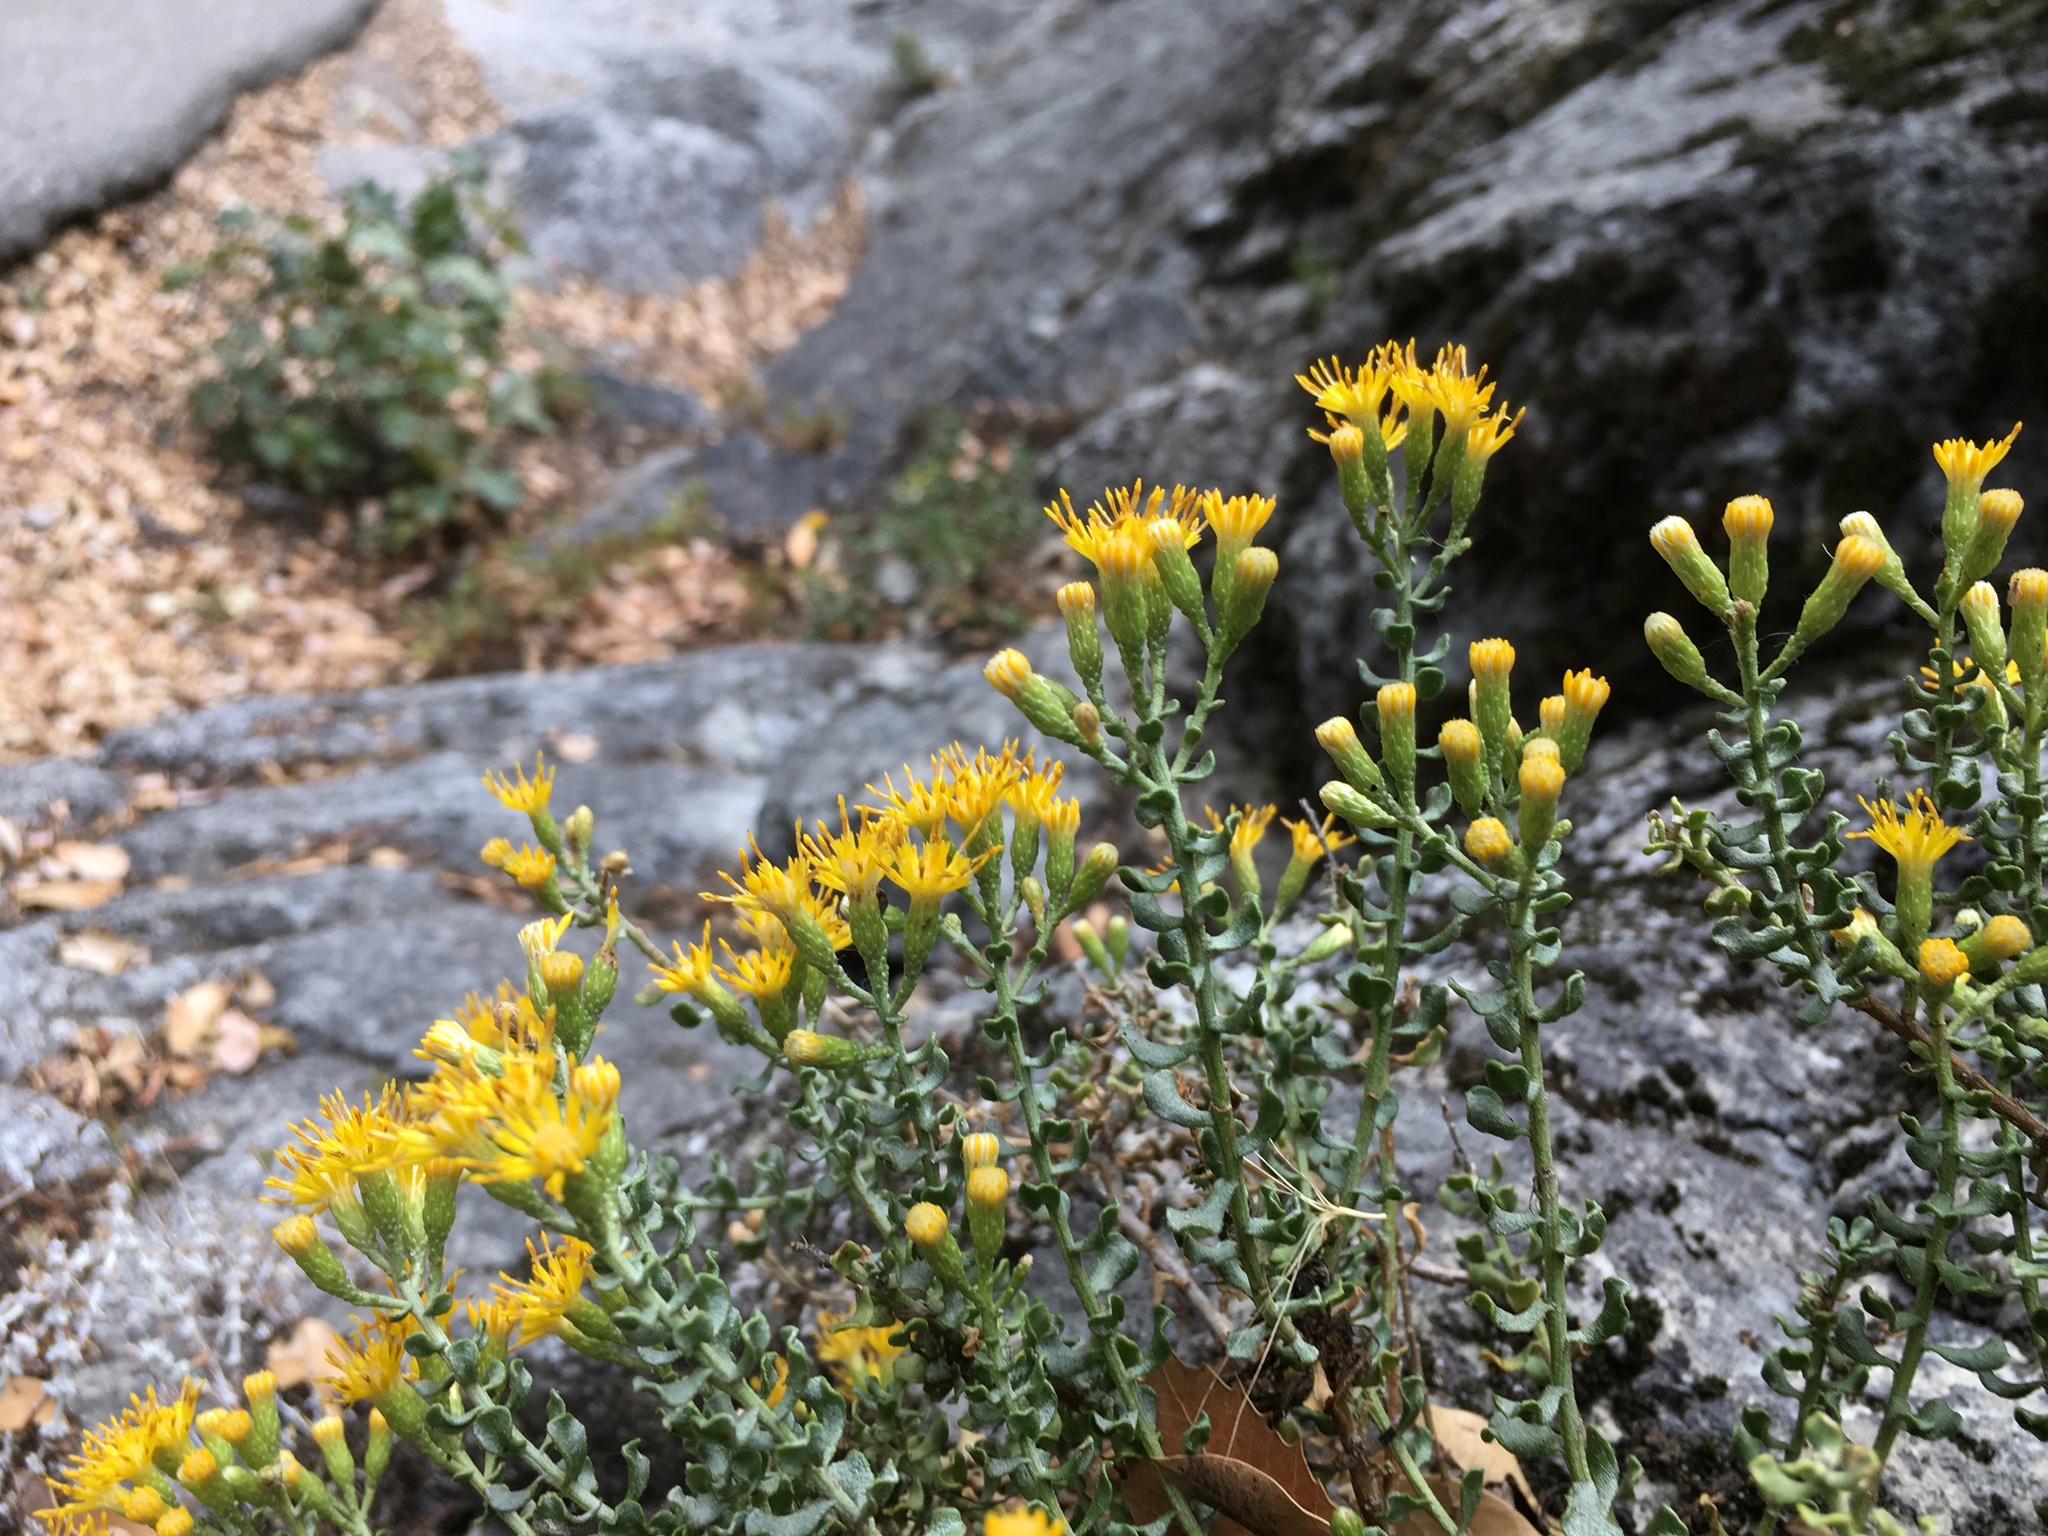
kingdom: Plantae
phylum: Tracheophyta
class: Magnoliopsida
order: Asterales
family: Asteraceae
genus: Ericameria
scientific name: Ericameria cuneata
